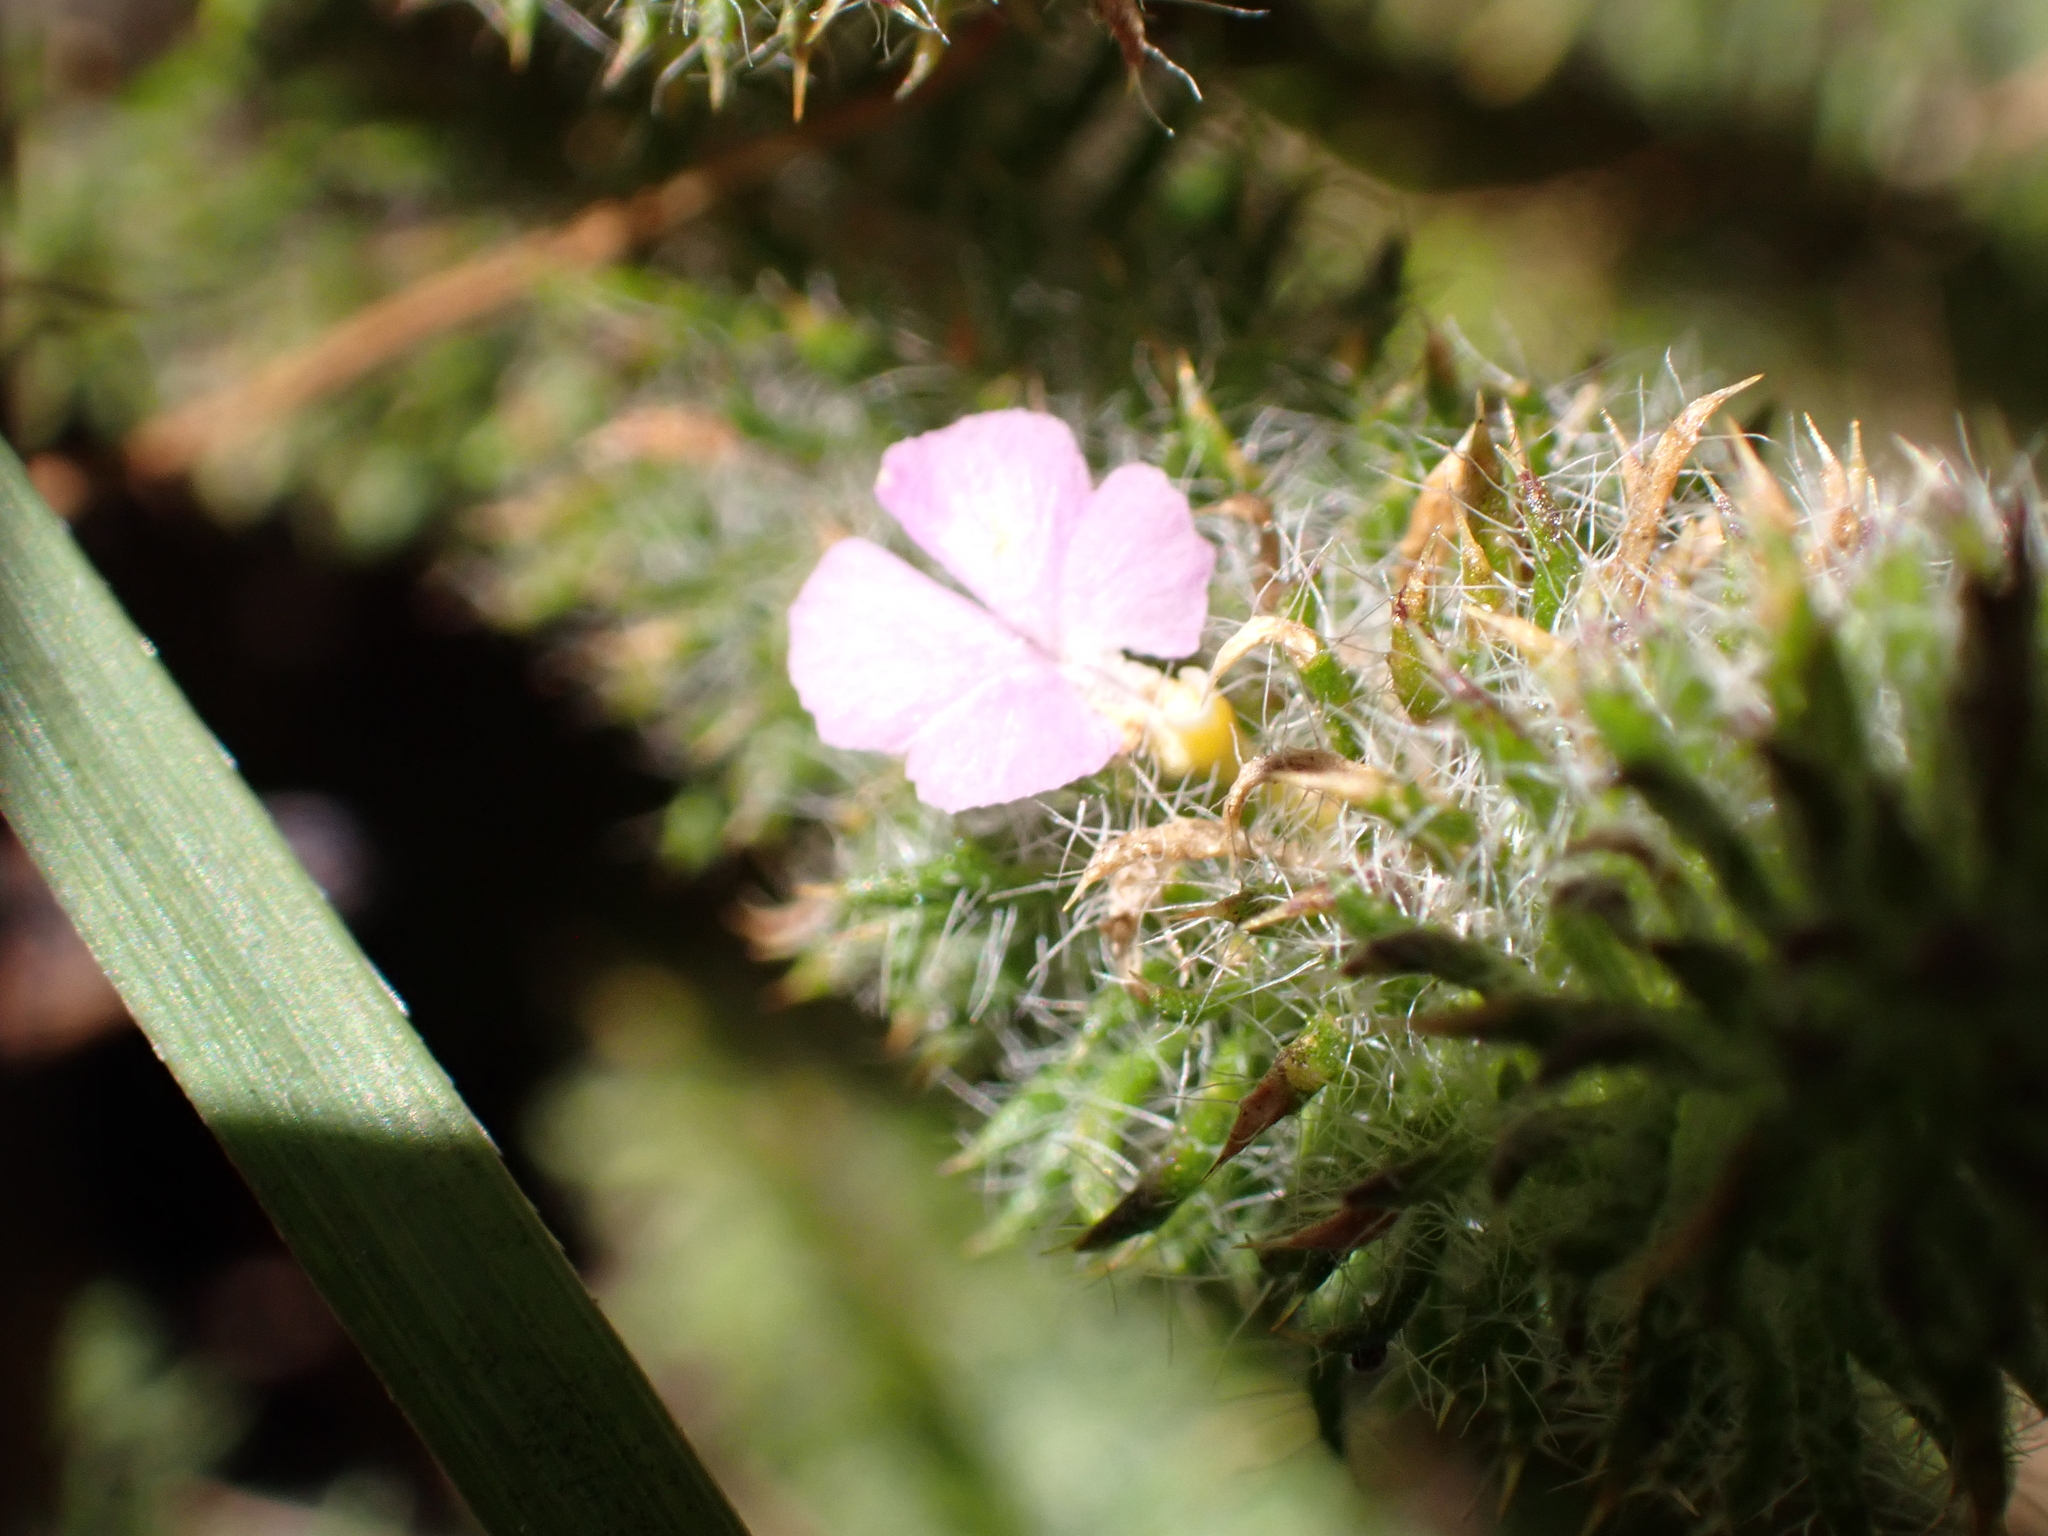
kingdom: Plantae
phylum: Tracheophyta
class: Magnoliopsida
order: Fabales
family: Polygalaceae
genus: Muraltia
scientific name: Muraltia ciliaris
